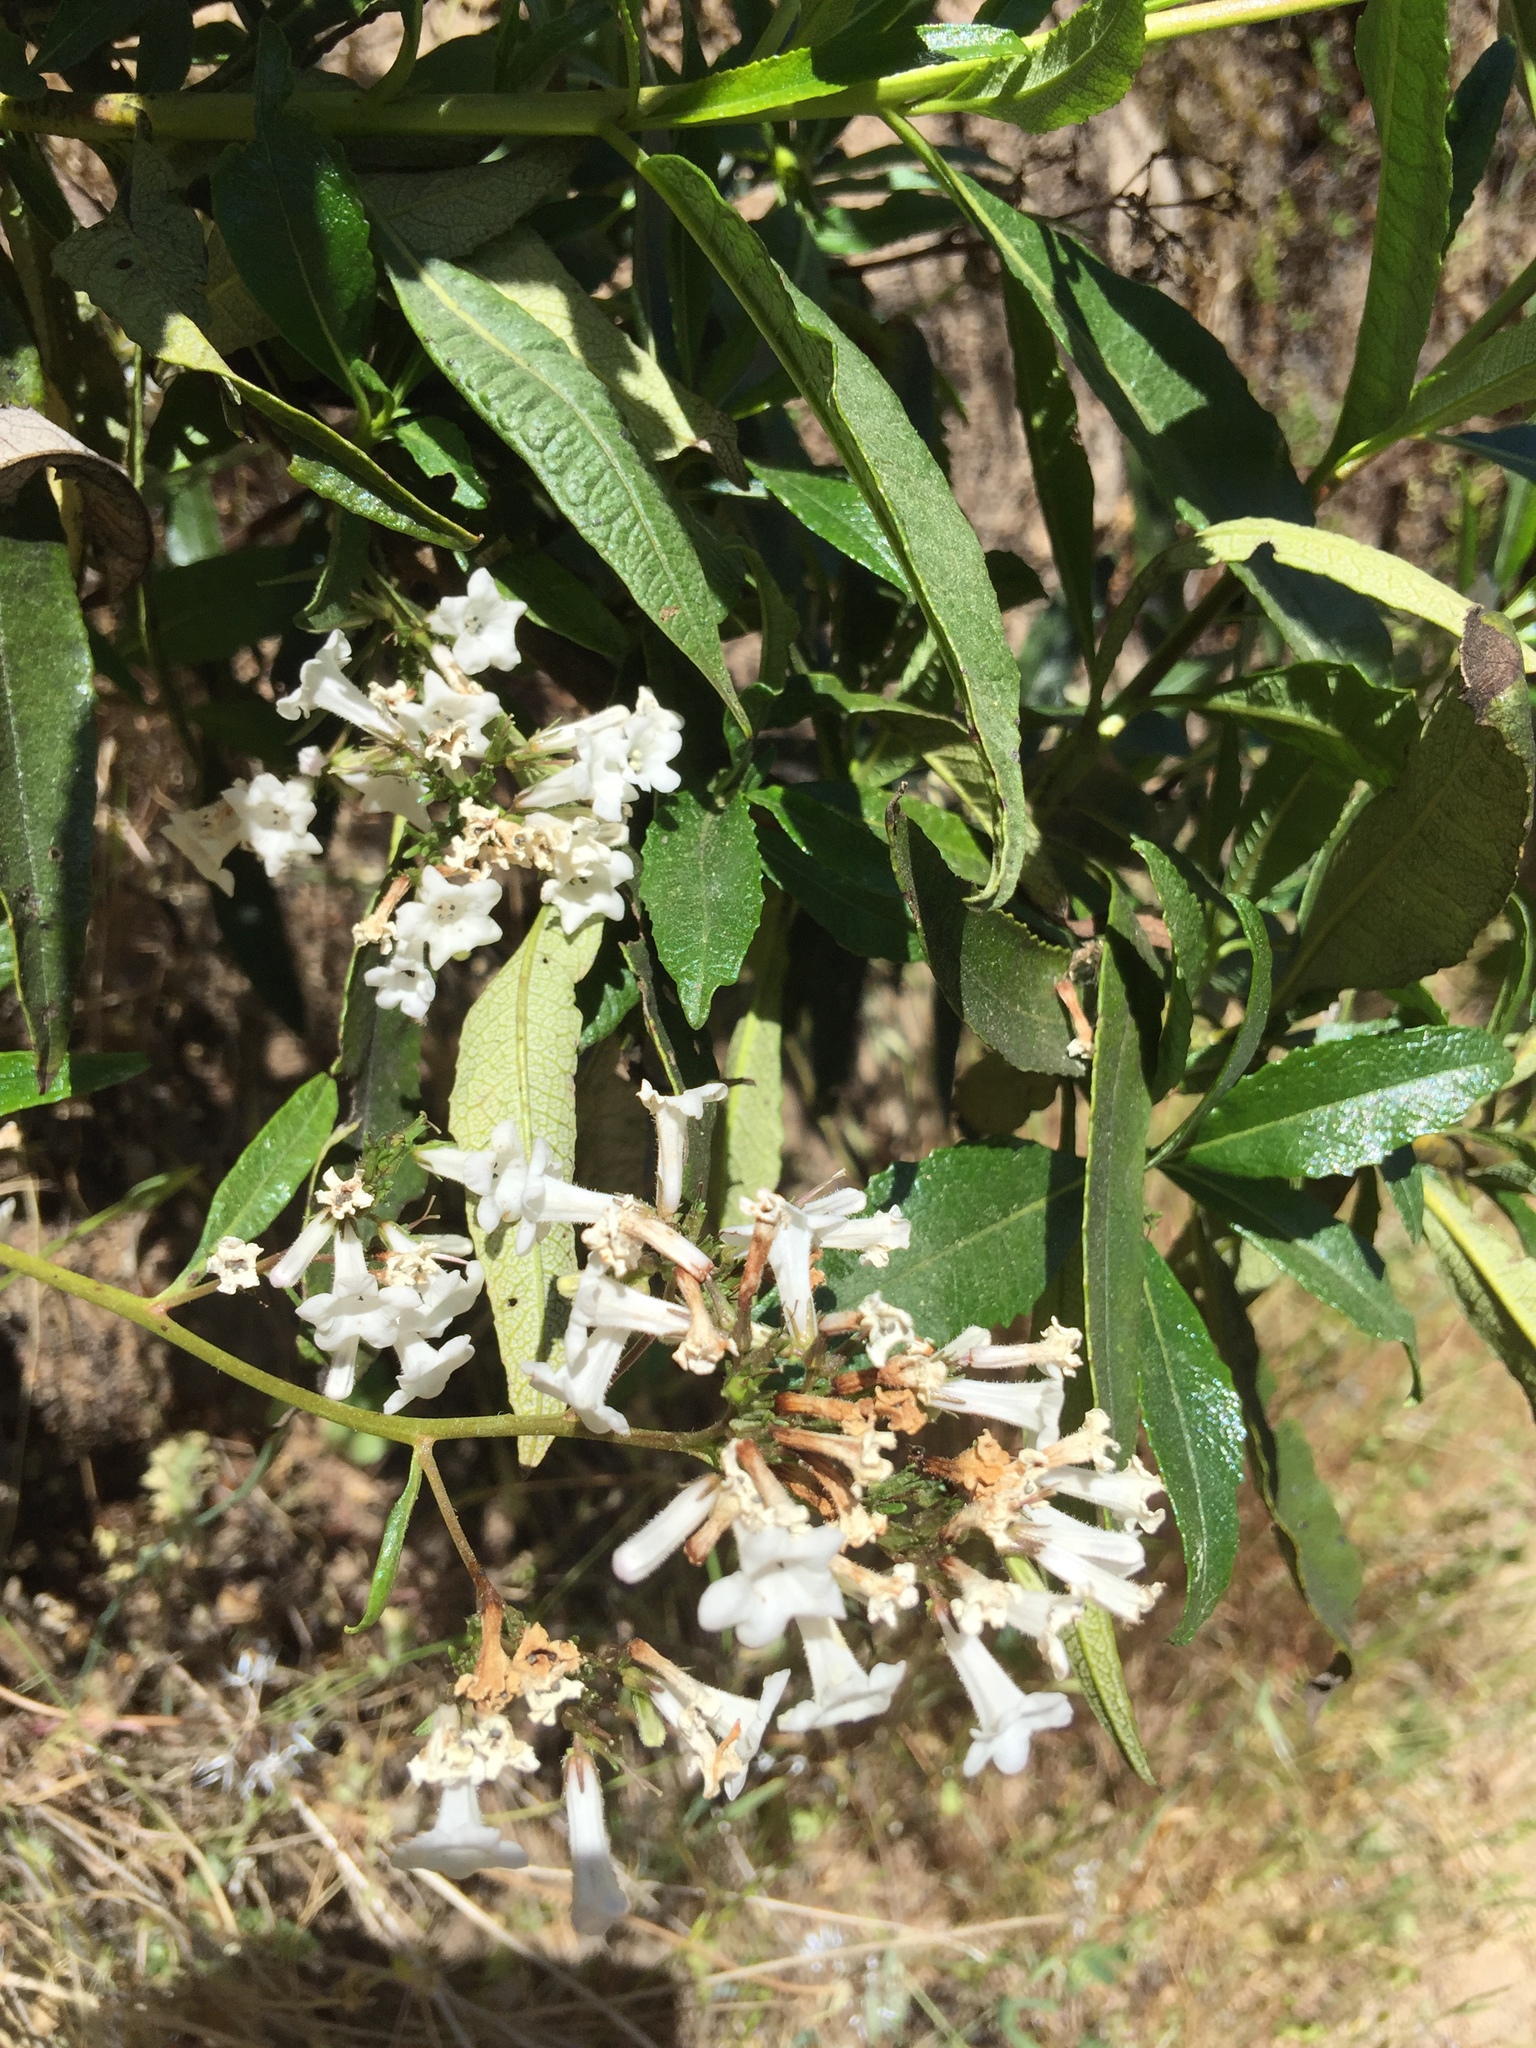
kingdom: Plantae
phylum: Tracheophyta
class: Magnoliopsida
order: Boraginales
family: Namaceae
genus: Eriodictyon
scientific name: Eriodictyon californicum
